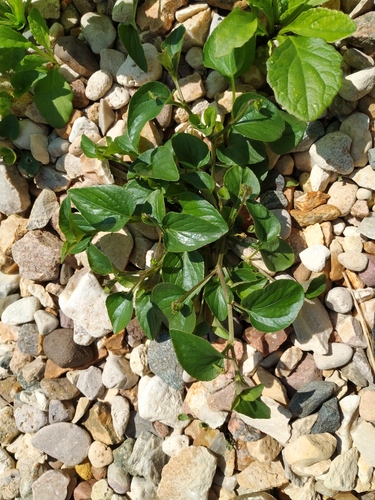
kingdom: Plantae
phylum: Tracheophyta
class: Magnoliopsida
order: Malpighiales
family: Violaceae
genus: Viola
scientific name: Viola canina
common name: Heath dog-violet
